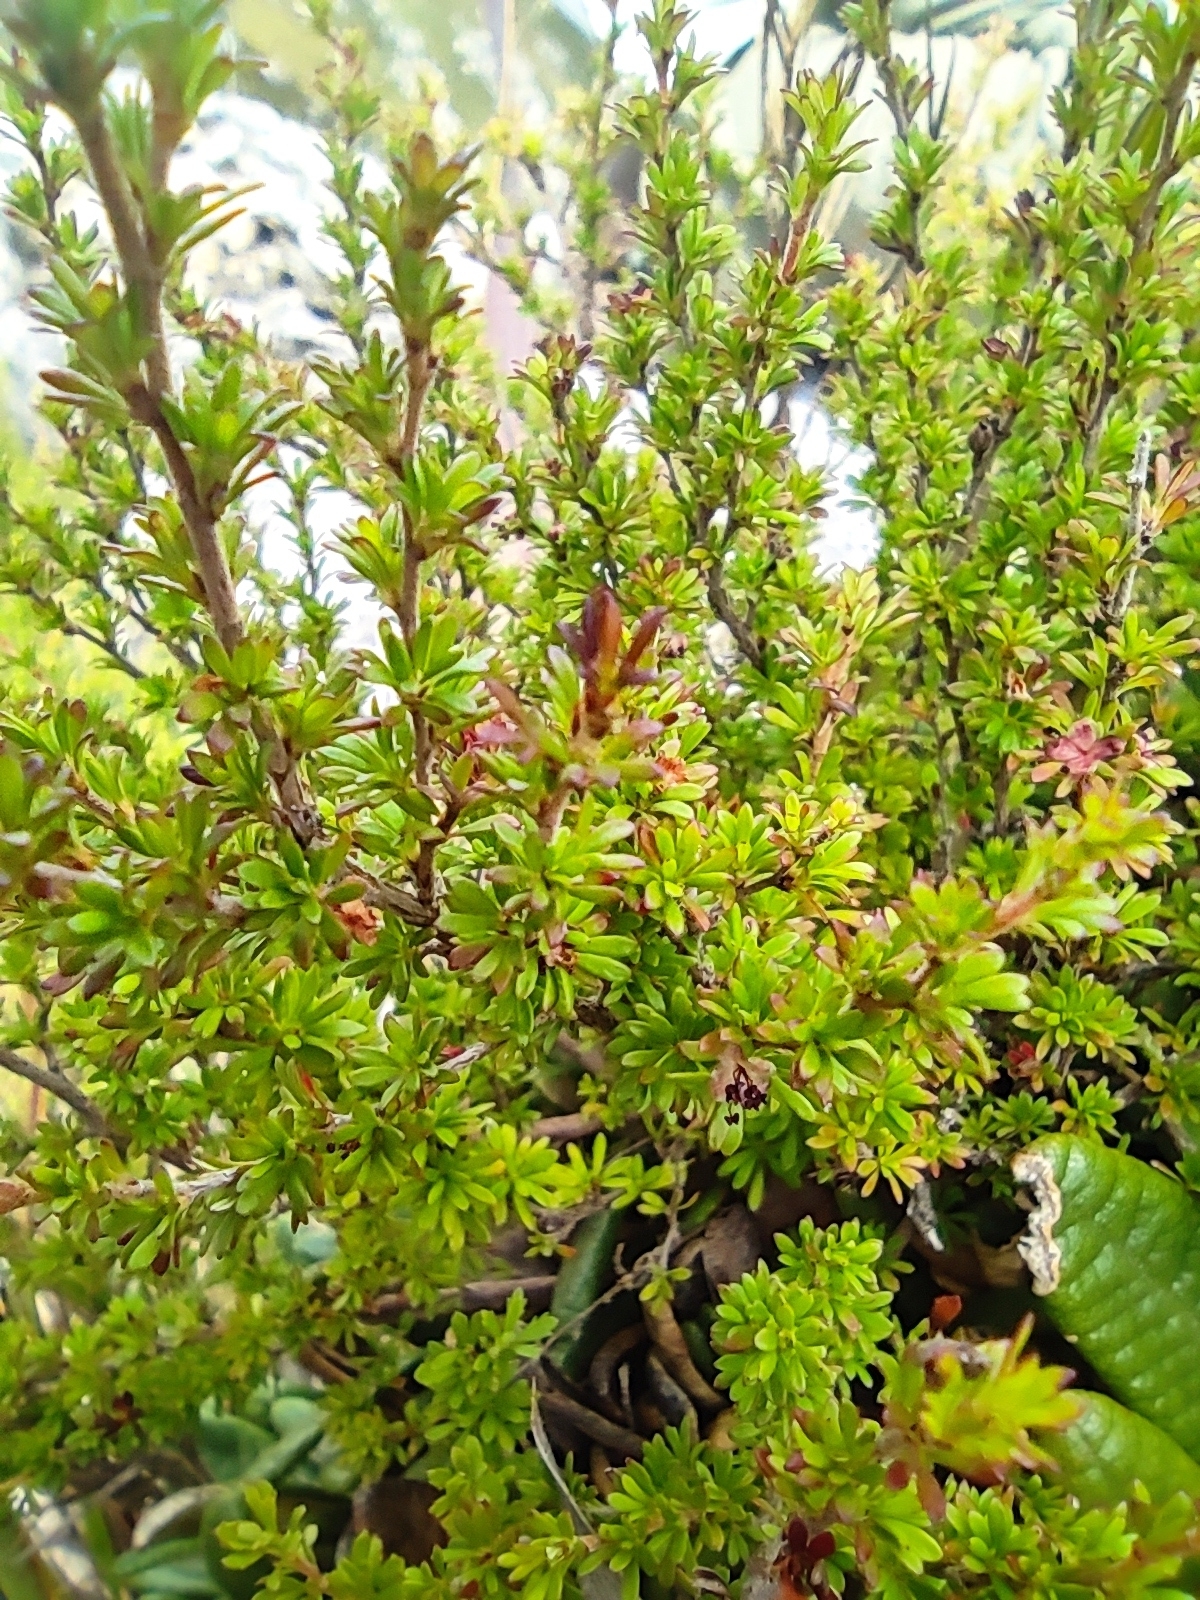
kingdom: Plantae
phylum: Tracheophyta
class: Magnoliopsida
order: Rosales
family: Rosaceae
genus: Cliffortia
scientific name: Cliffortia serpyllifolia
